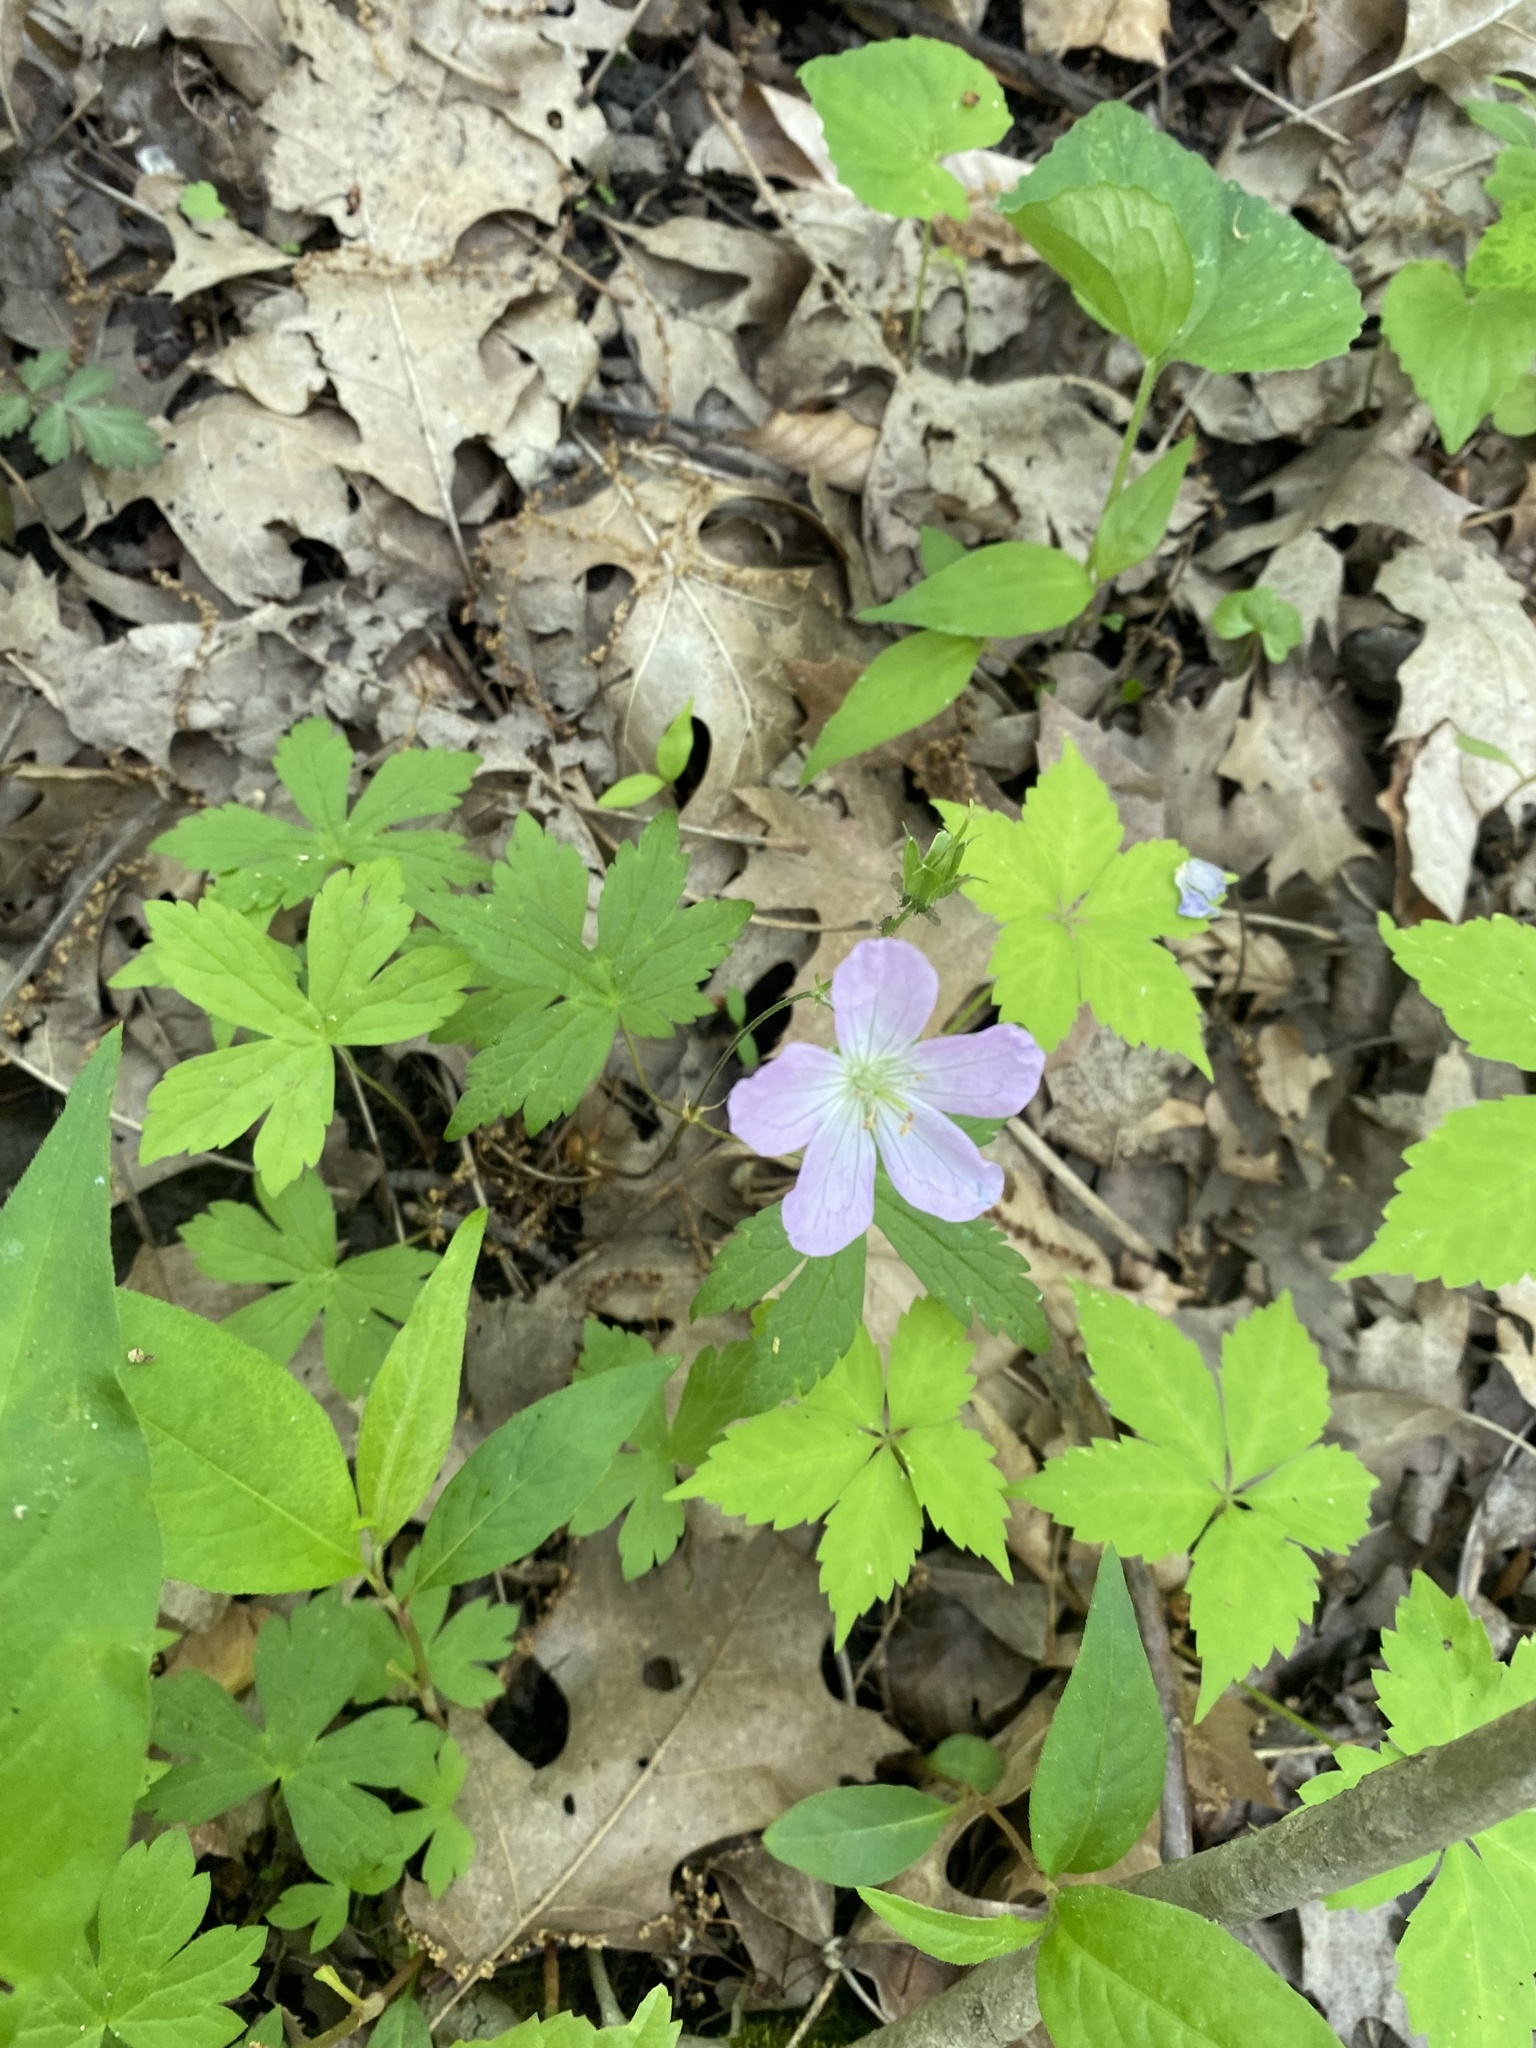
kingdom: Plantae
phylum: Tracheophyta
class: Magnoliopsida
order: Geraniales
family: Geraniaceae
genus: Geranium
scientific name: Geranium maculatum
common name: Spotted geranium
